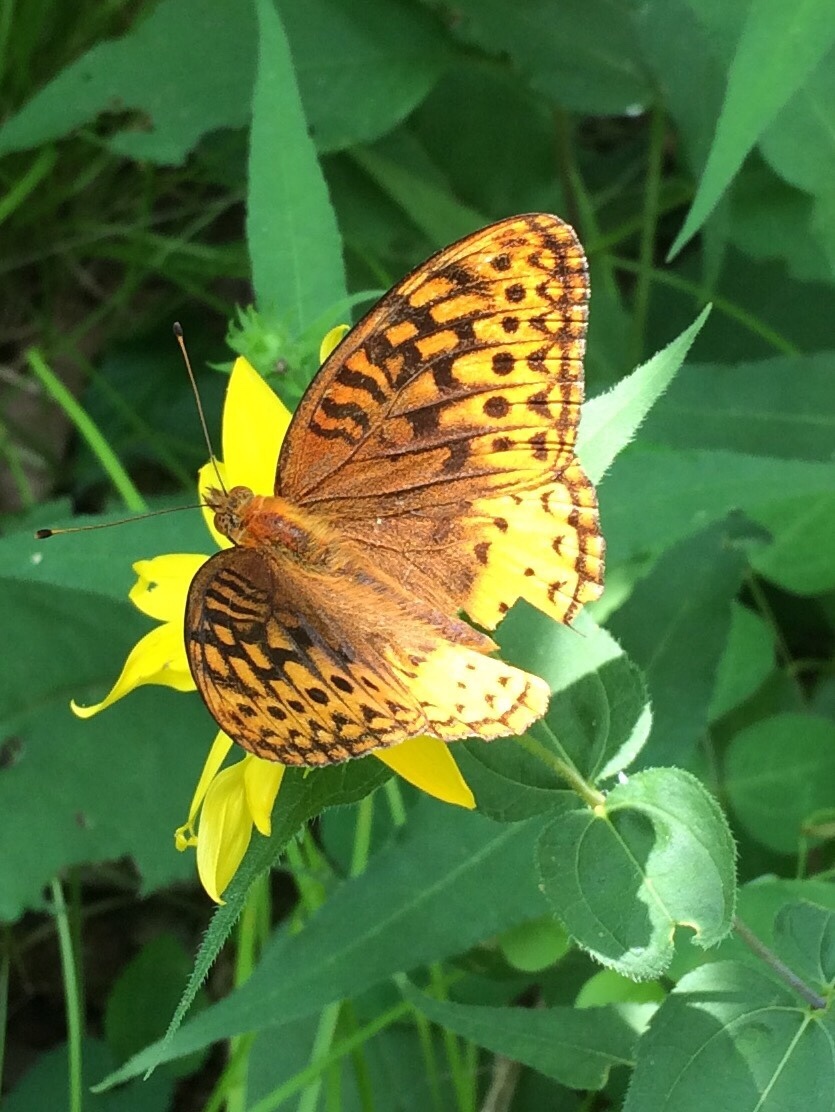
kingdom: Animalia
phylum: Arthropoda
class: Insecta
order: Lepidoptera
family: Nymphalidae
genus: Speyeria
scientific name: Speyeria cybele
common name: Great spangled fritillary
